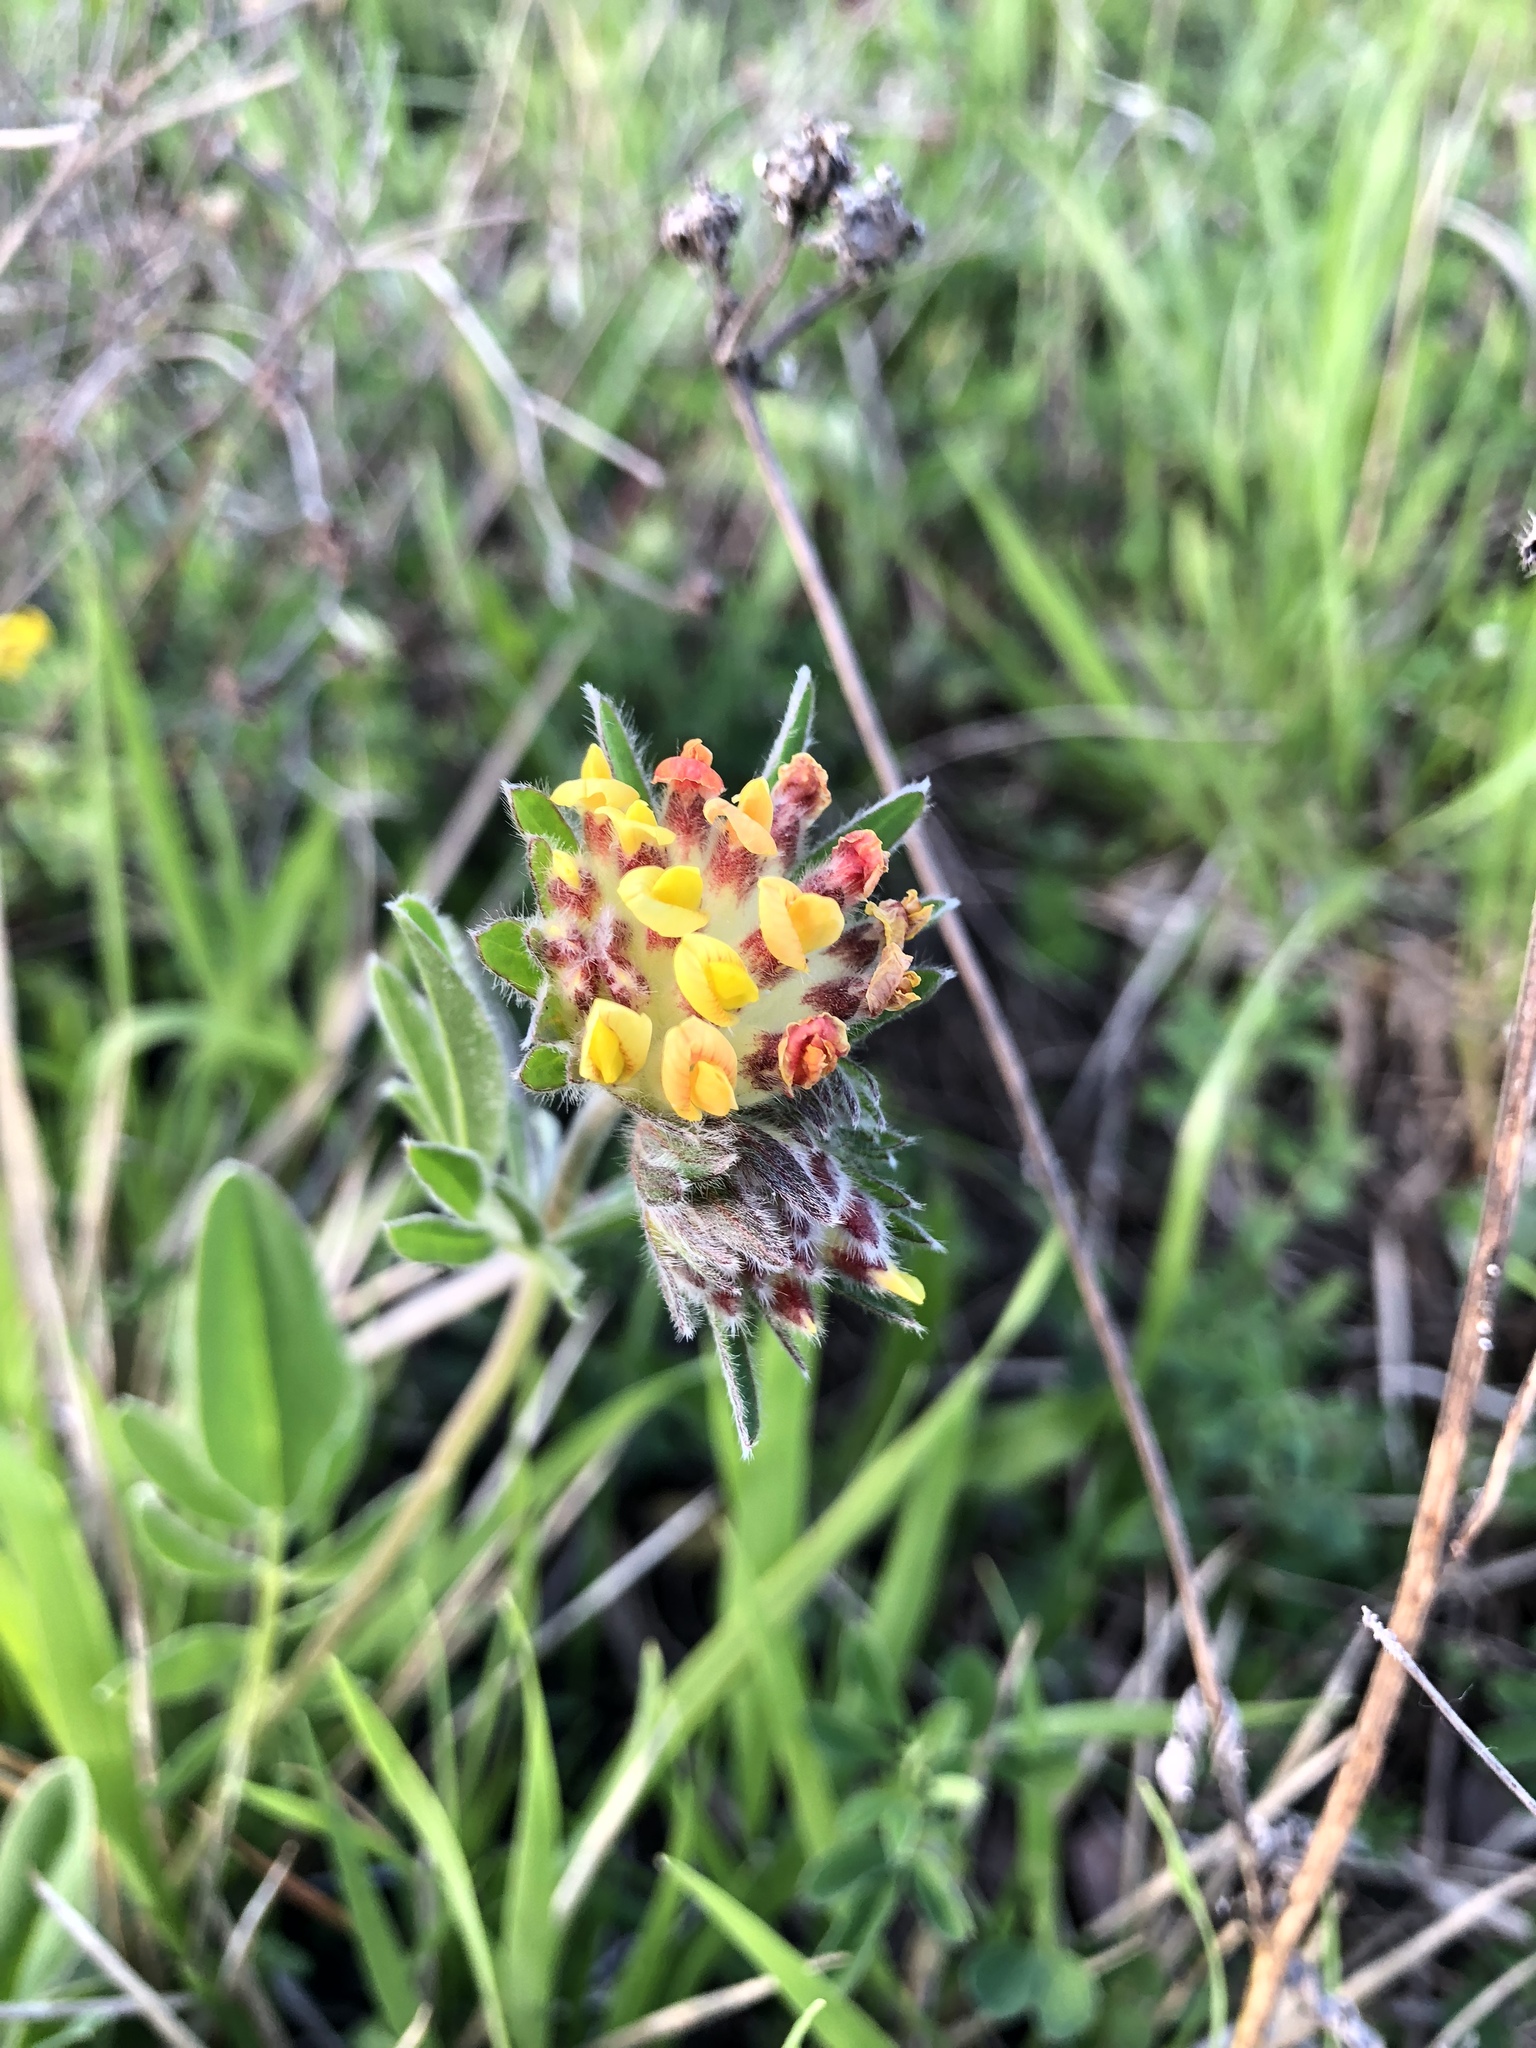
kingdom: Plantae
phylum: Tracheophyta
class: Magnoliopsida
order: Fabales
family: Fabaceae
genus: Anthyllis
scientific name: Anthyllis vulneraria
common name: Kidney vetch
